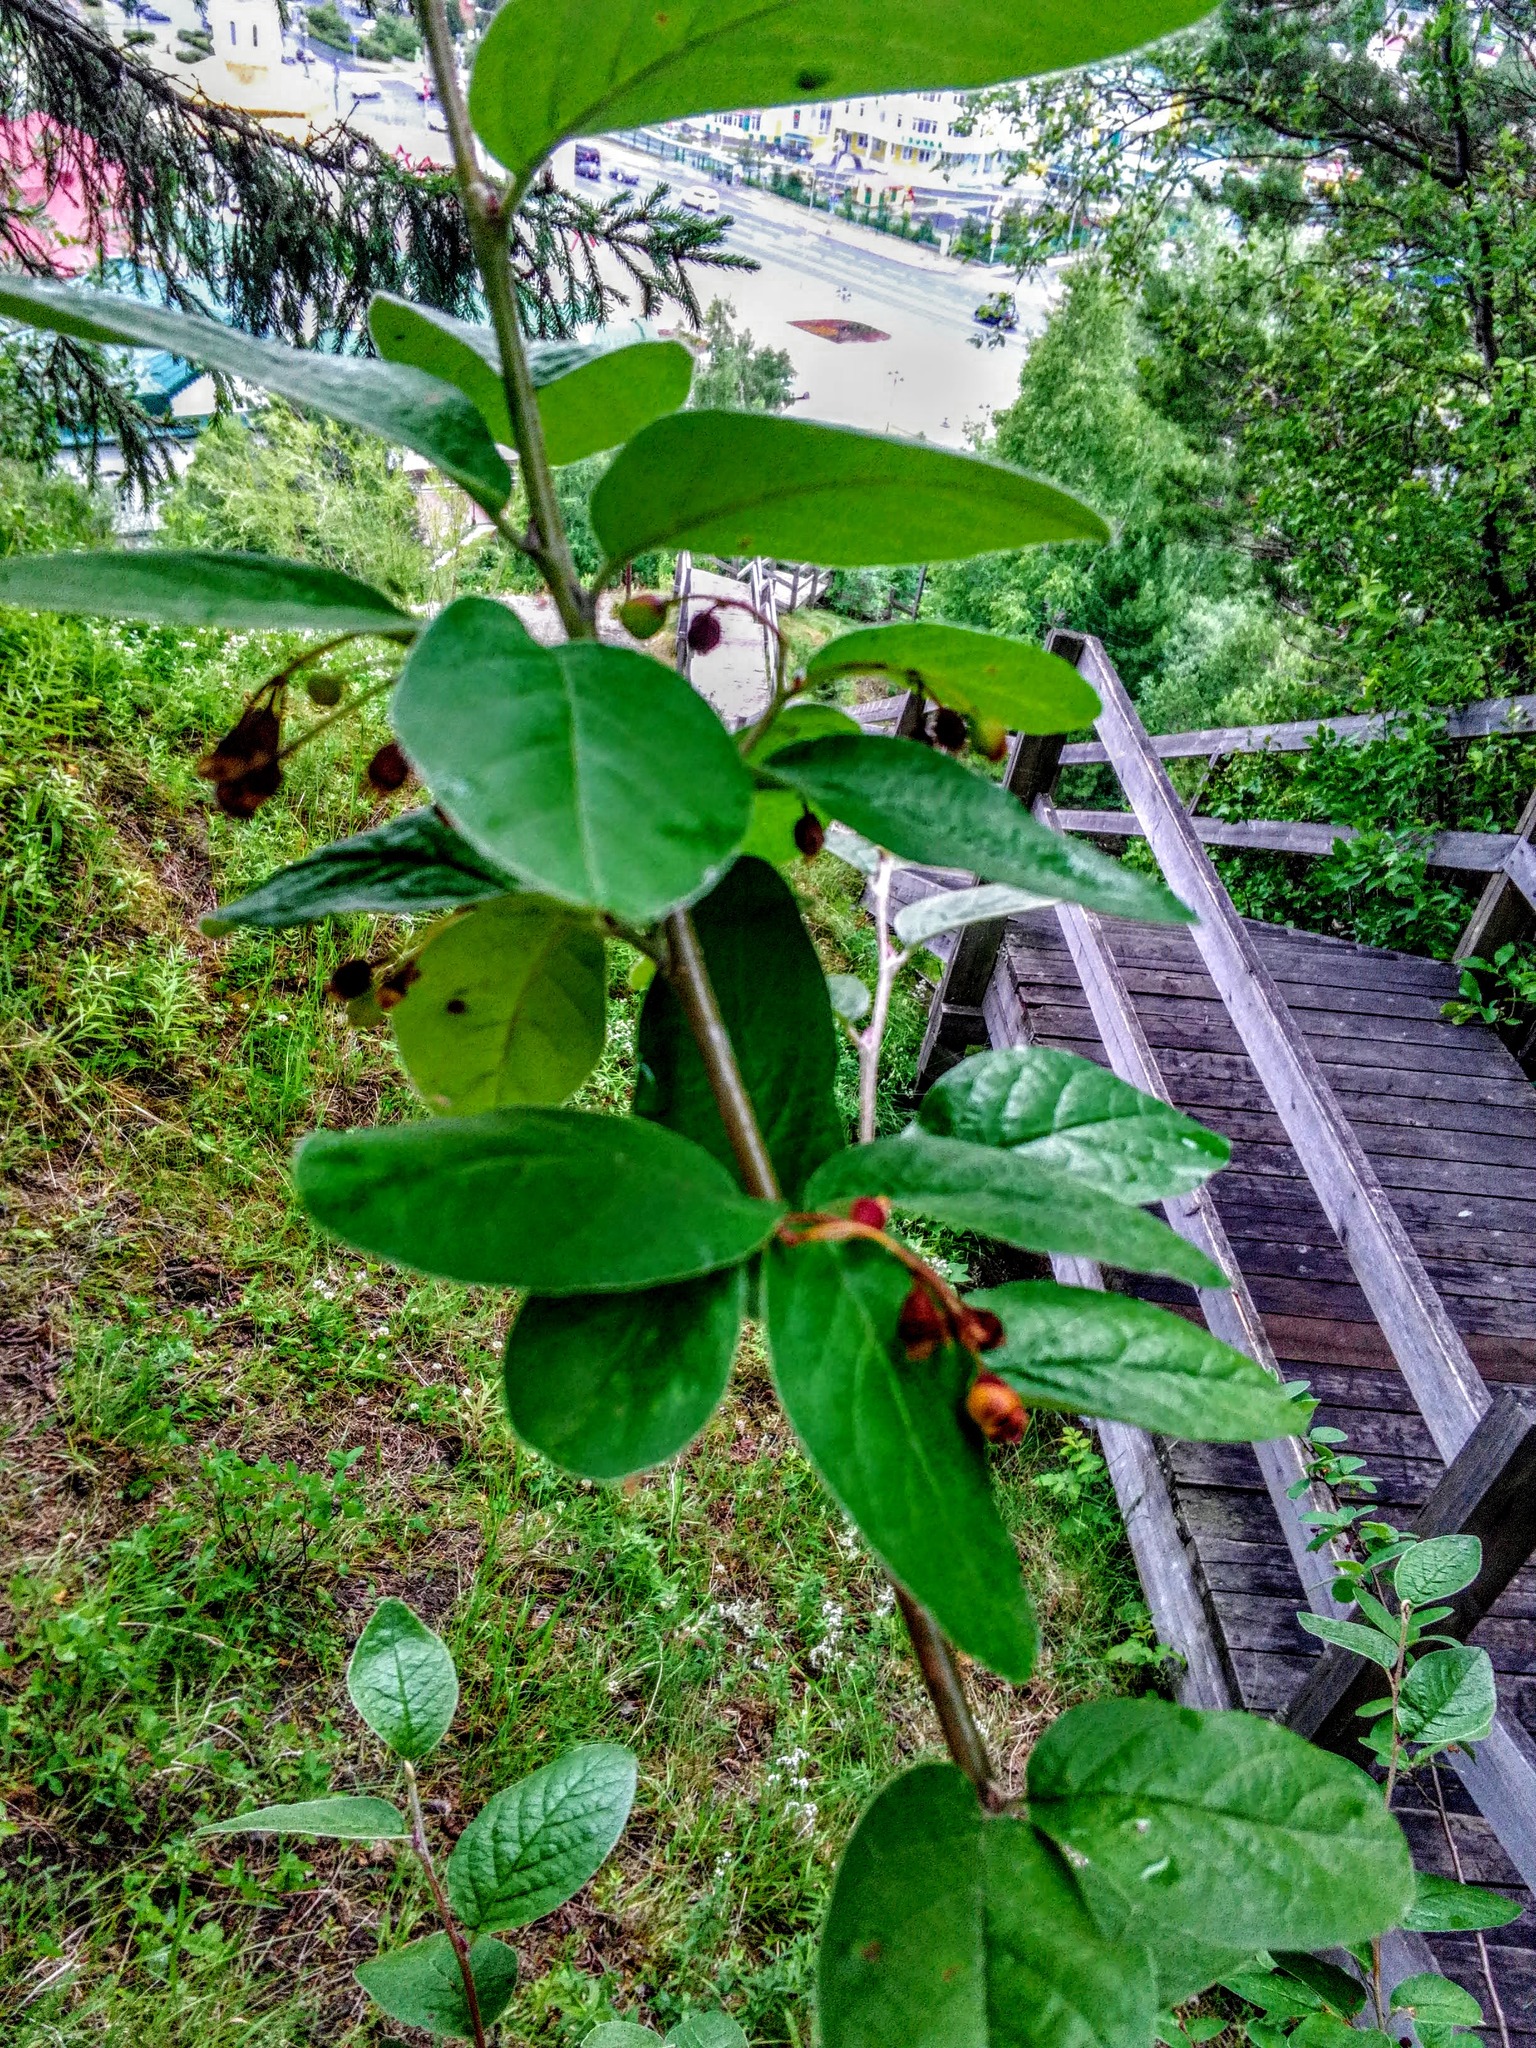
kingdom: Plantae
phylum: Tracheophyta
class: Magnoliopsida
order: Rosales
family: Rosaceae
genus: Cotoneaster
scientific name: Cotoneaster melanocarpus
